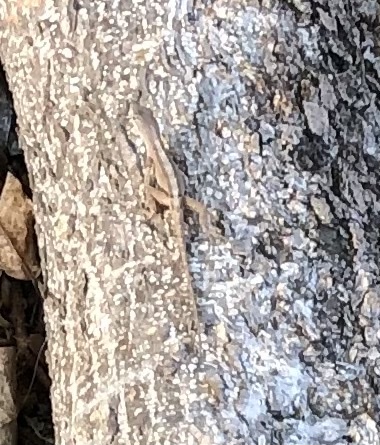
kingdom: Animalia
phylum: Chordata
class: Squamata
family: Dactyloidae
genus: Anolis
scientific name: Anolis sagrei
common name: Brown anole
